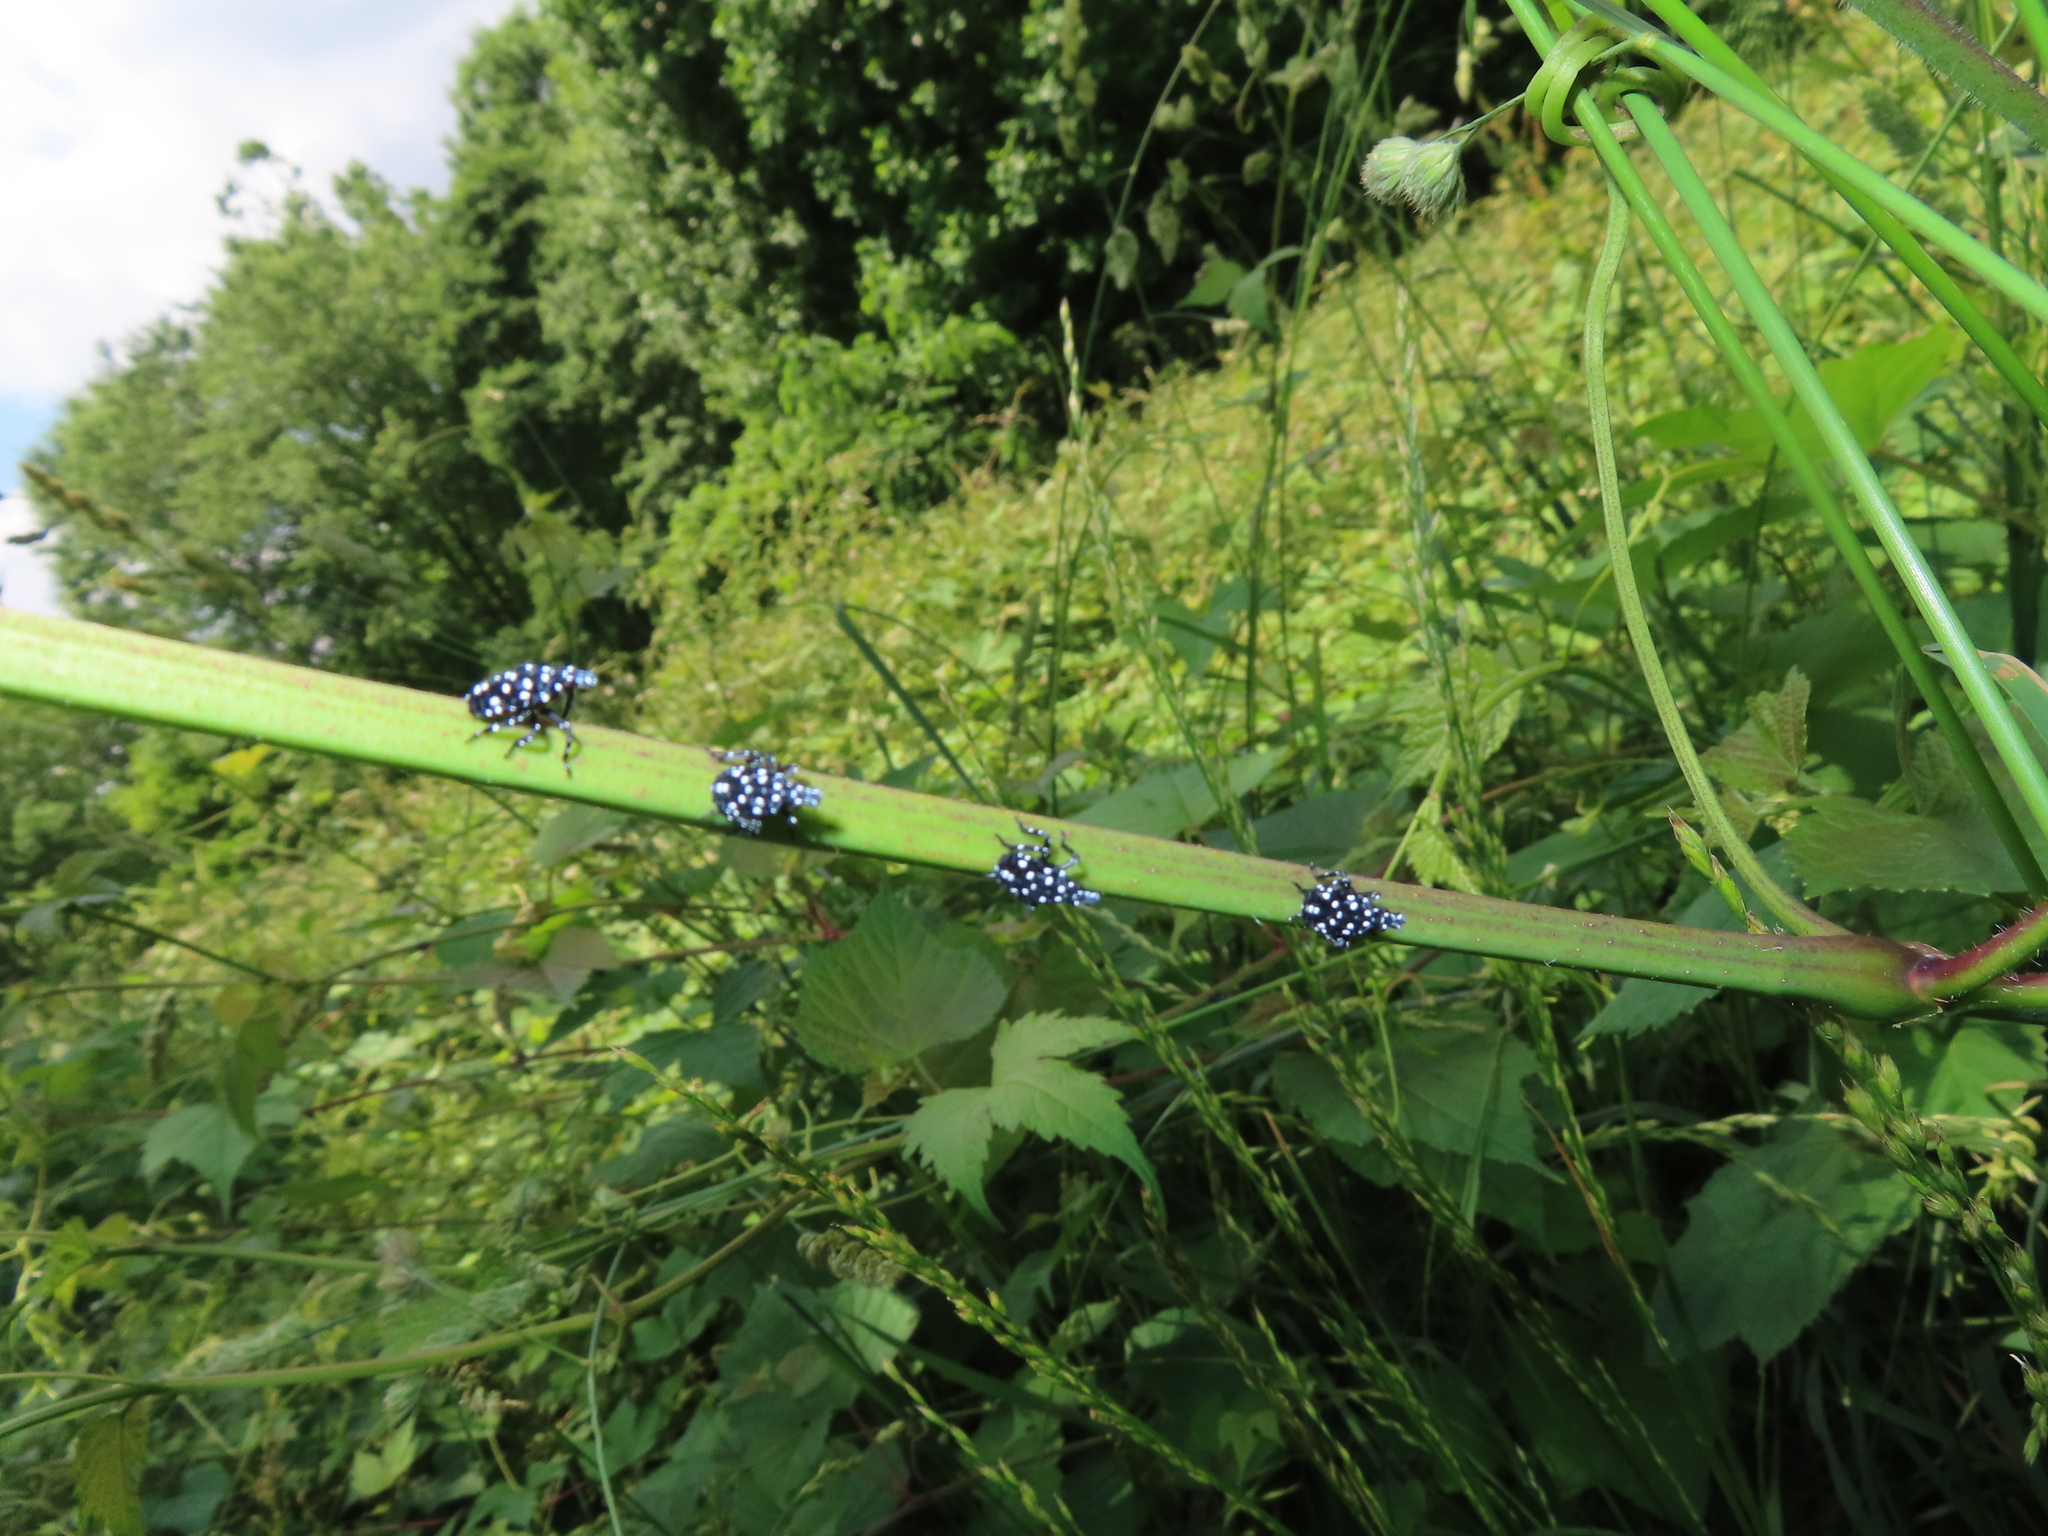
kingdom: Animalia
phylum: Arthropoda
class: Insecta
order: Hemiptera
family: Fulgoridae
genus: Lycorma
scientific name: Lycorma delicatula
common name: Spotted lanternfly
